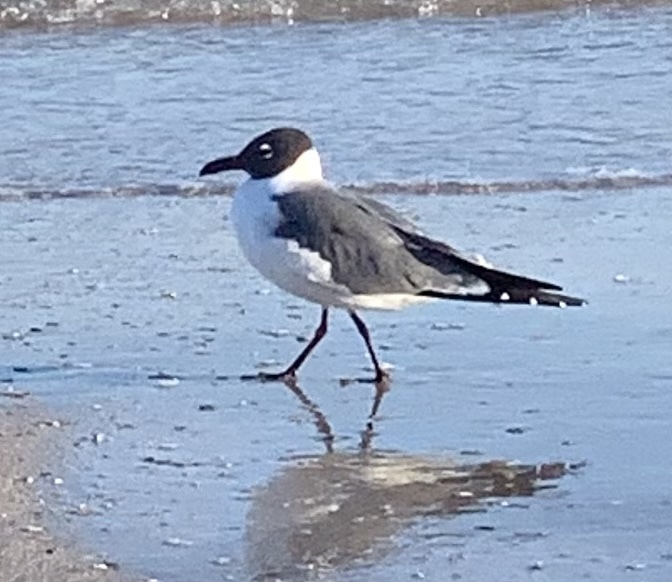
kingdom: Animalia
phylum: Chordata
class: Aves
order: Charadriiformes
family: Laridae
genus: Leucophaeus
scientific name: Leucophaeus atricilla
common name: Laughing gull
